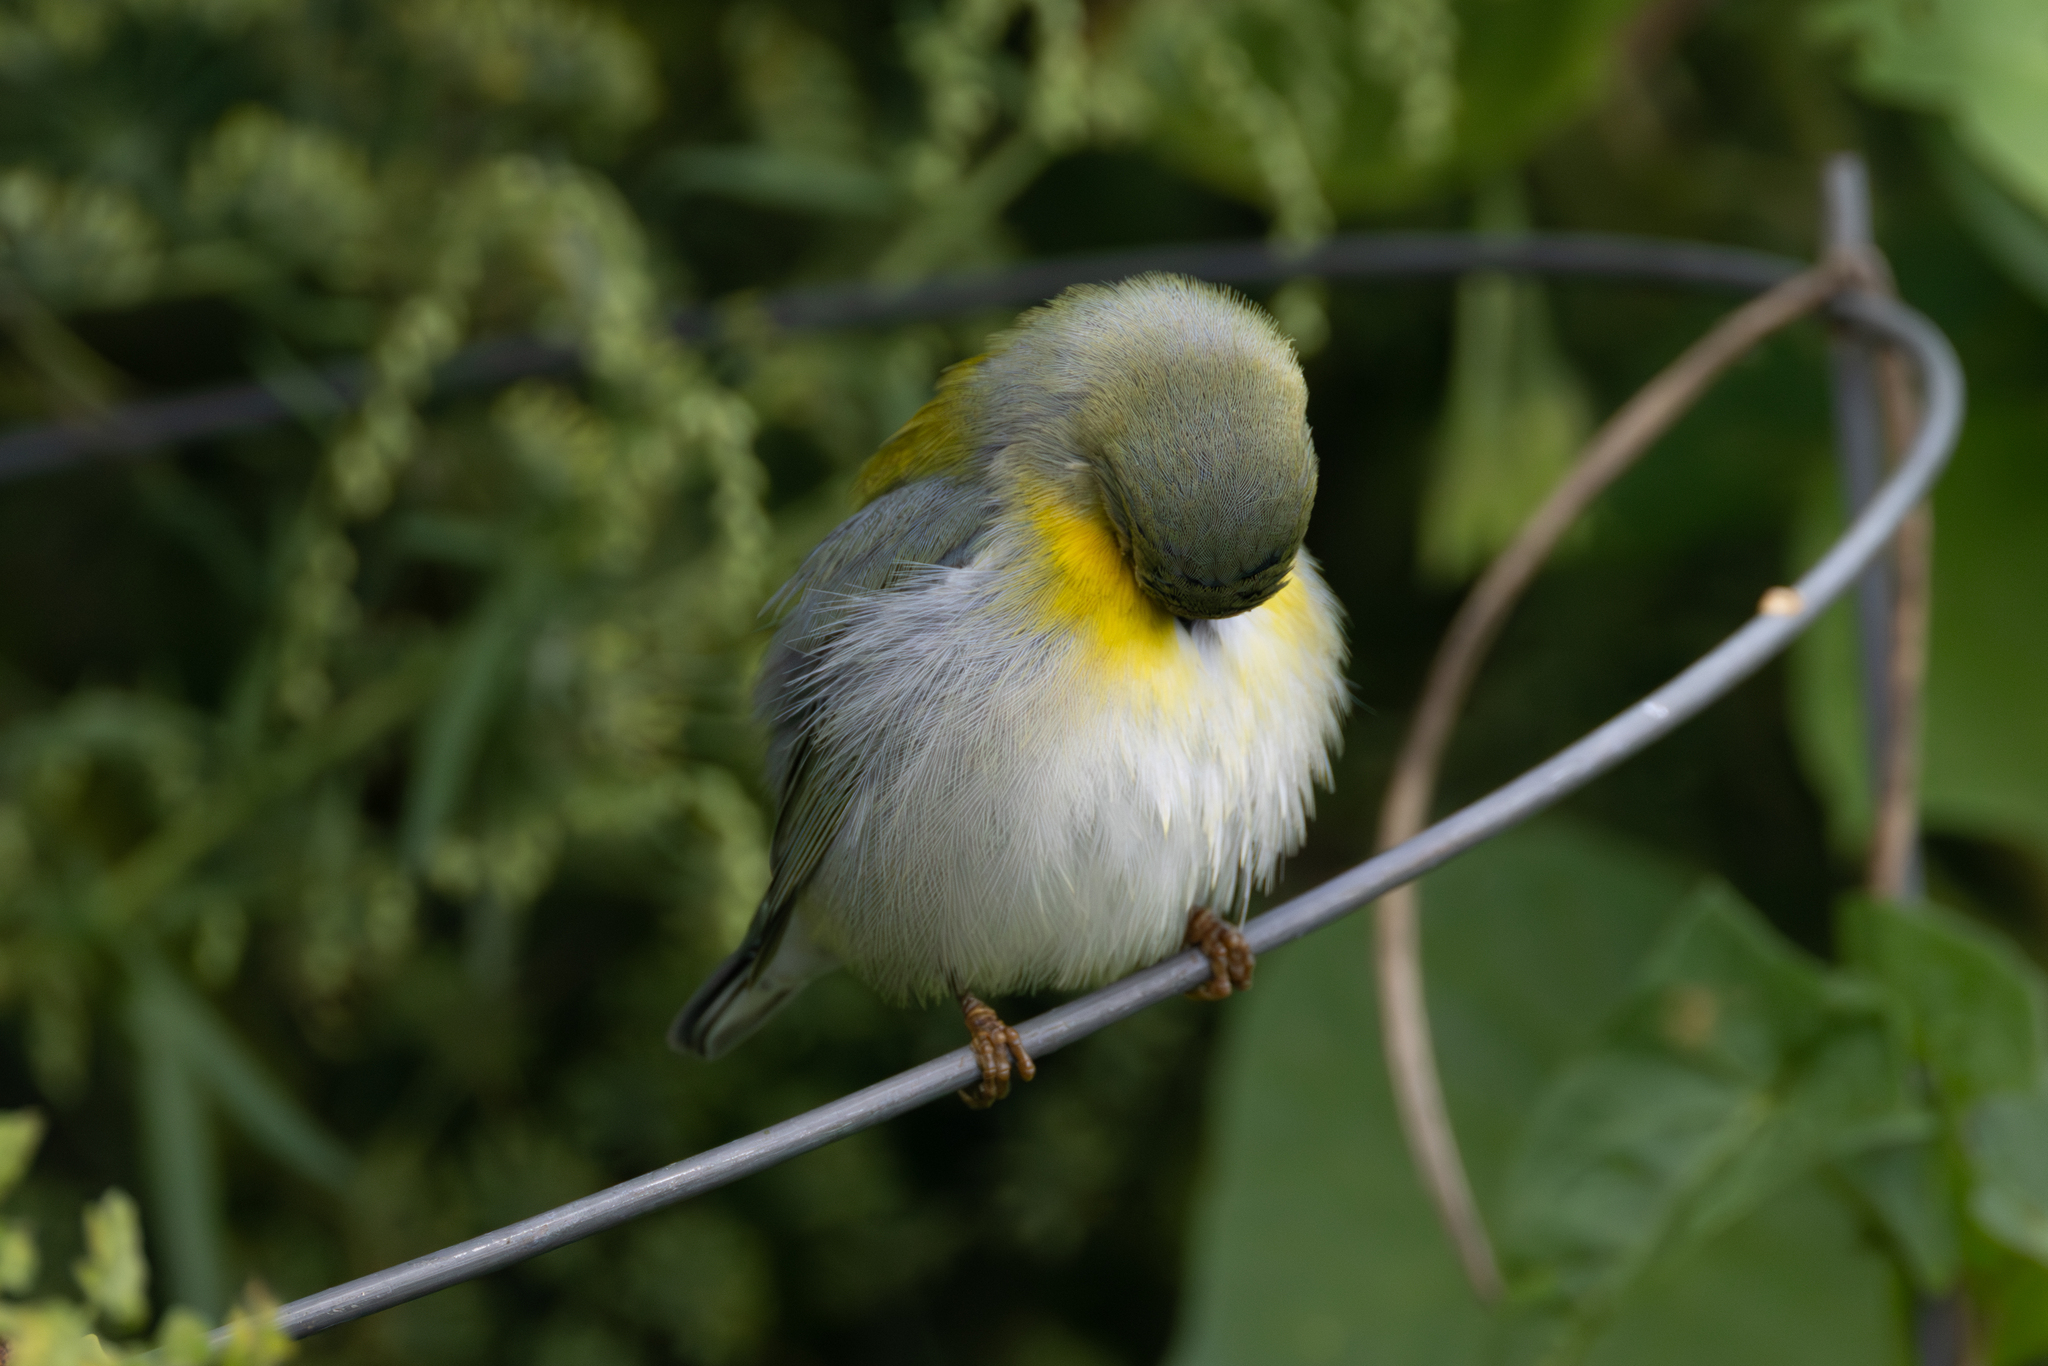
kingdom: Animalia
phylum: Chordata
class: Aves
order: Passeriformes
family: Parulidae
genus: Setophaga
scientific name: Setophaga americana
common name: Northern parula
